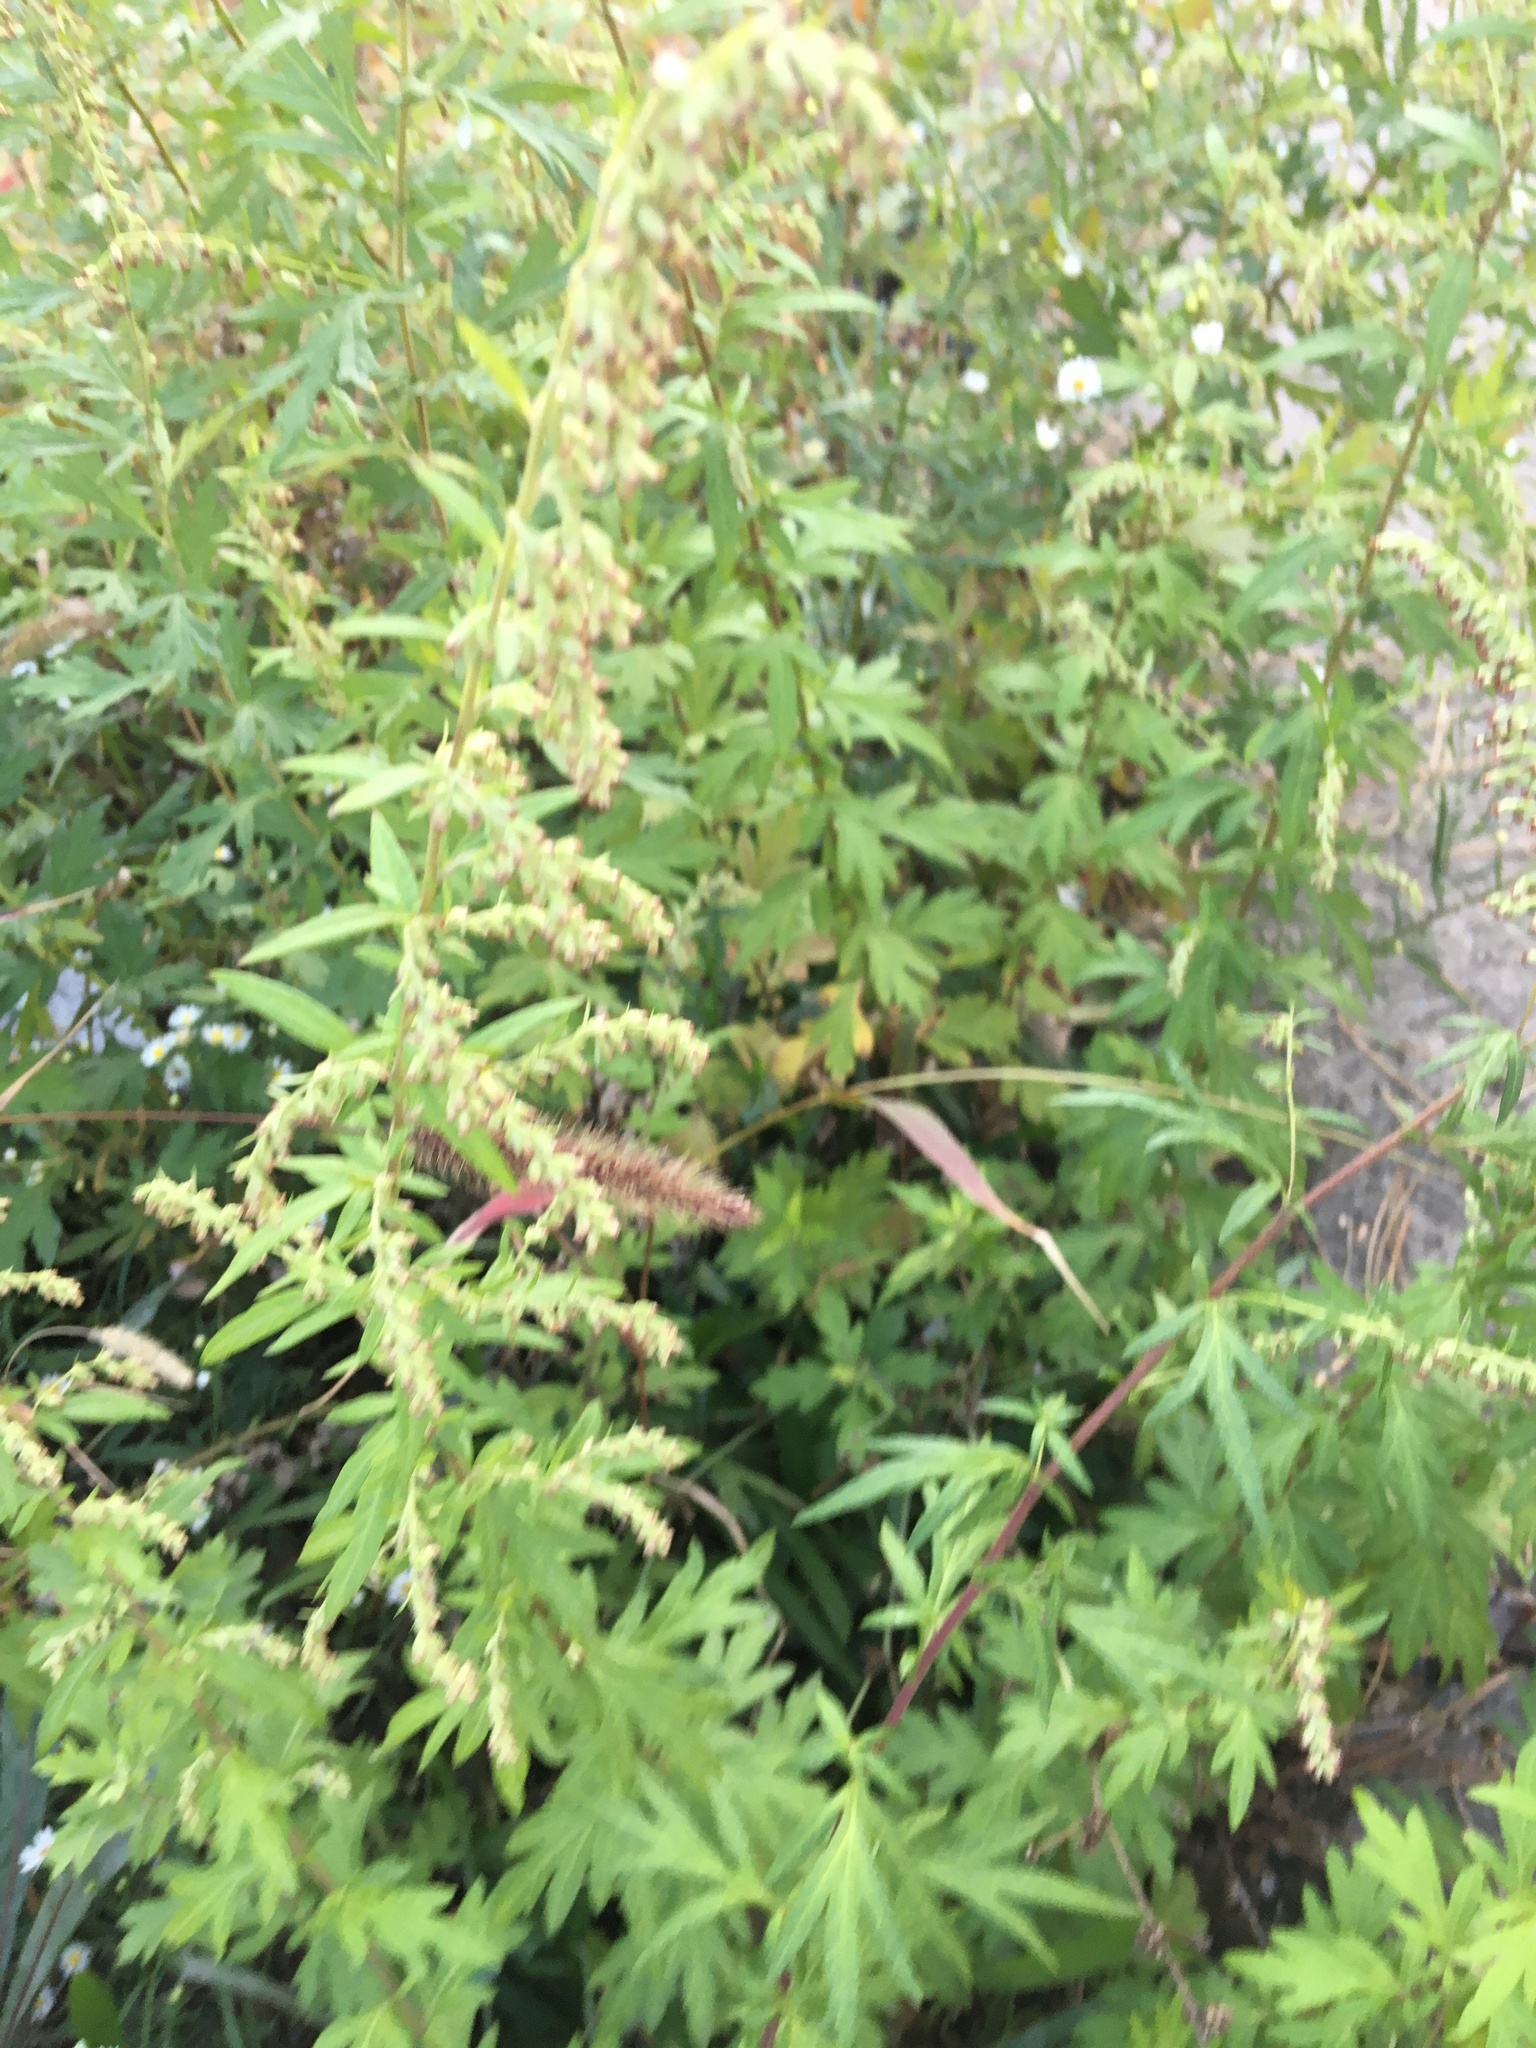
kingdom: Plantae
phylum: Tracheophyta
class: Magnoliopsida
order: Asterales
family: Asteraceae
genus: Artemisia
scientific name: Artemisia vulgaris
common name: Mugwort
